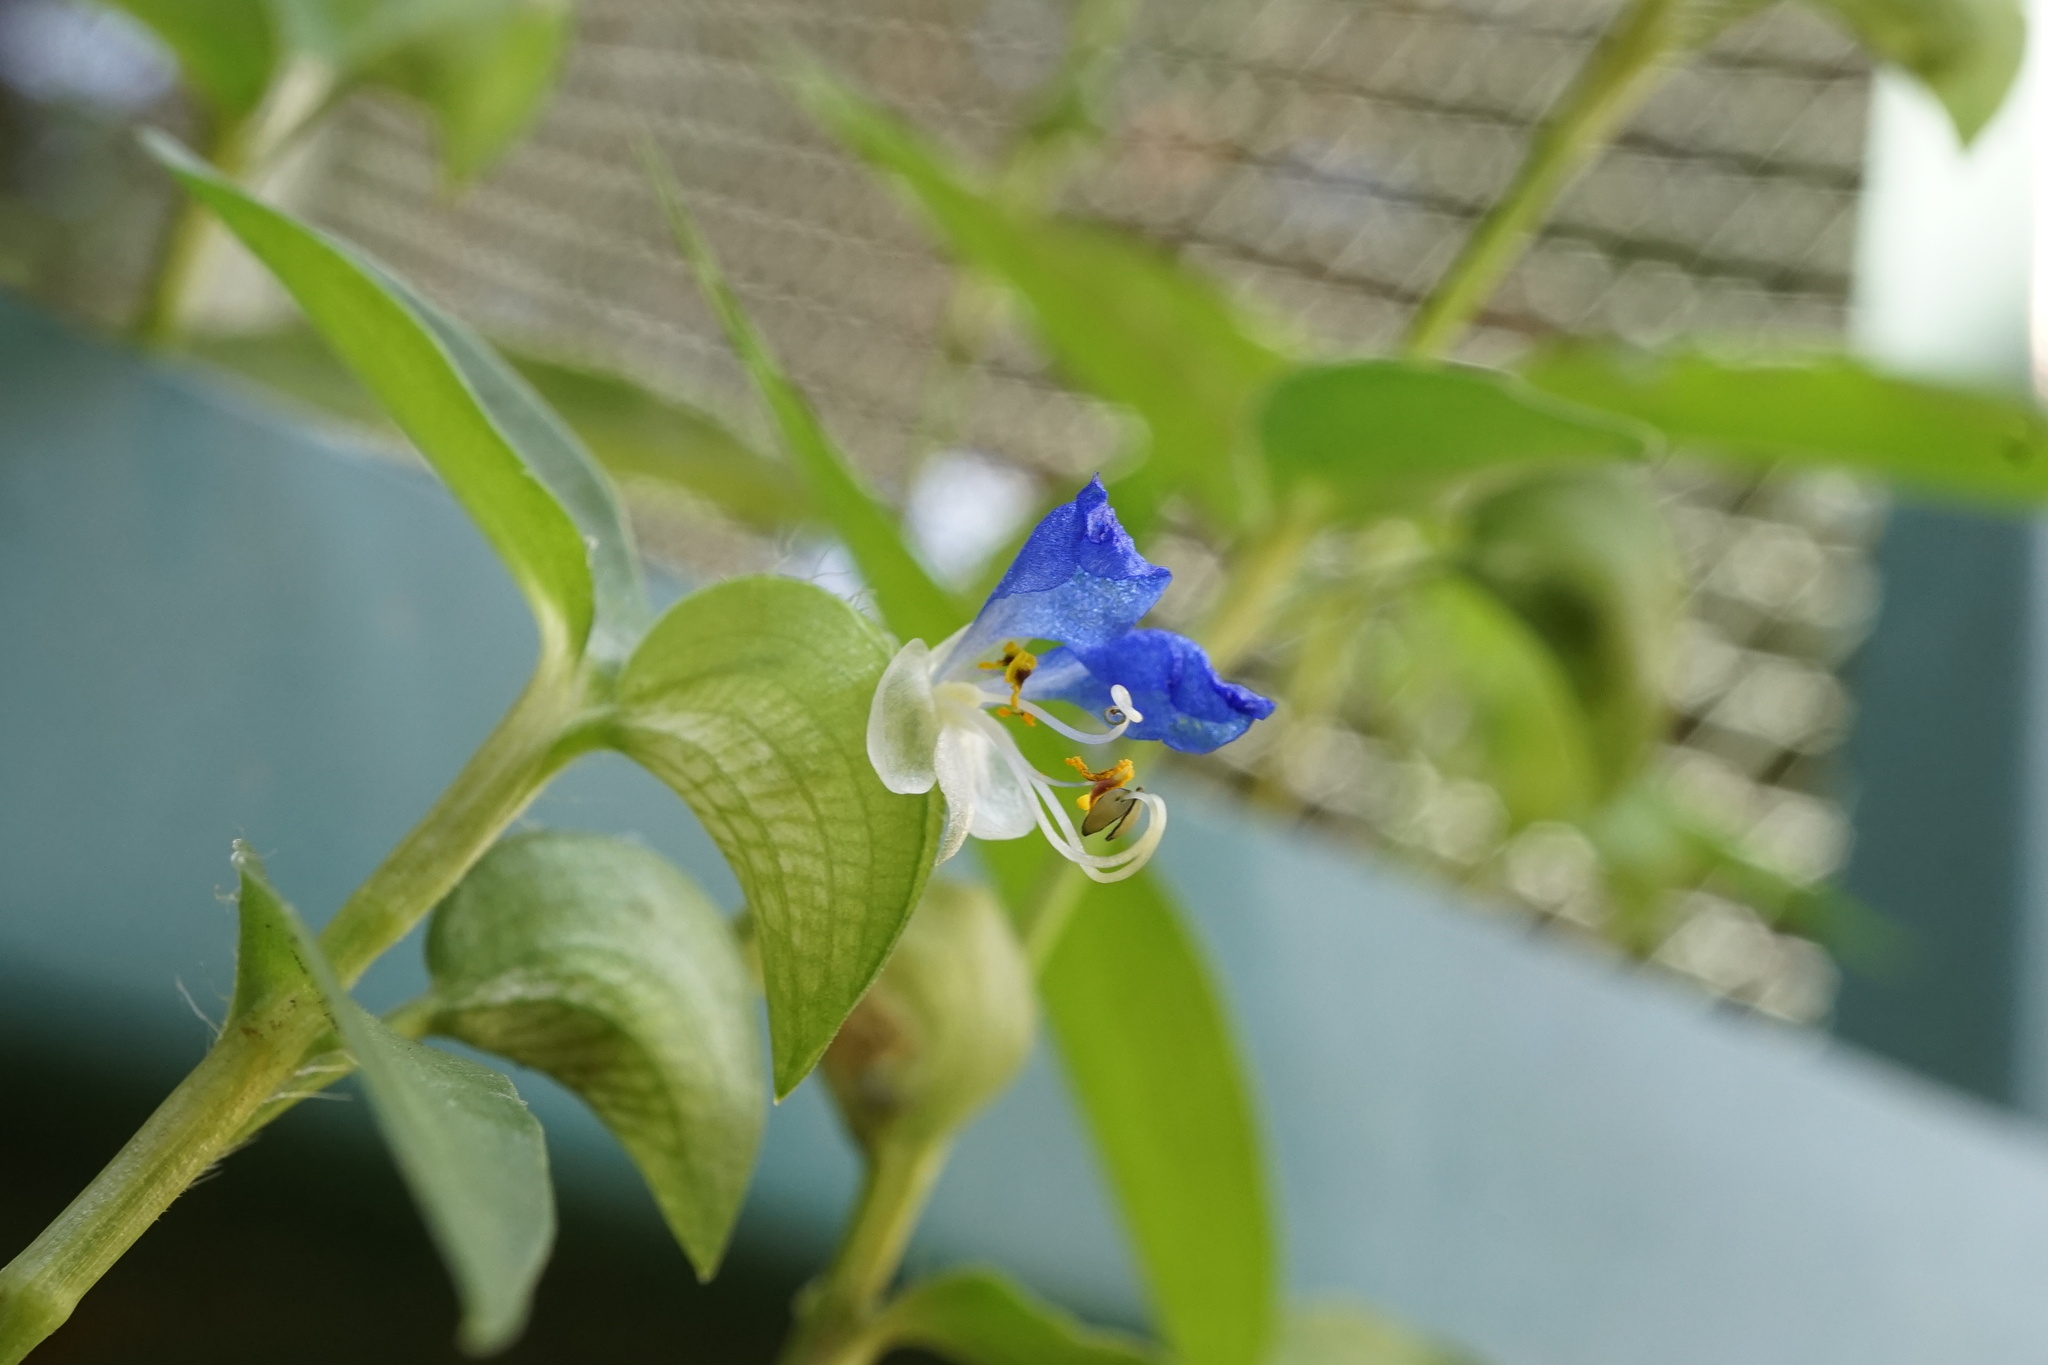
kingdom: Plantae
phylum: Tracheophyta
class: Liliopsida
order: Commelinales
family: Commelinaceae
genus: Commelina
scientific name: Commelina communis
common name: Asiatic dayflower
